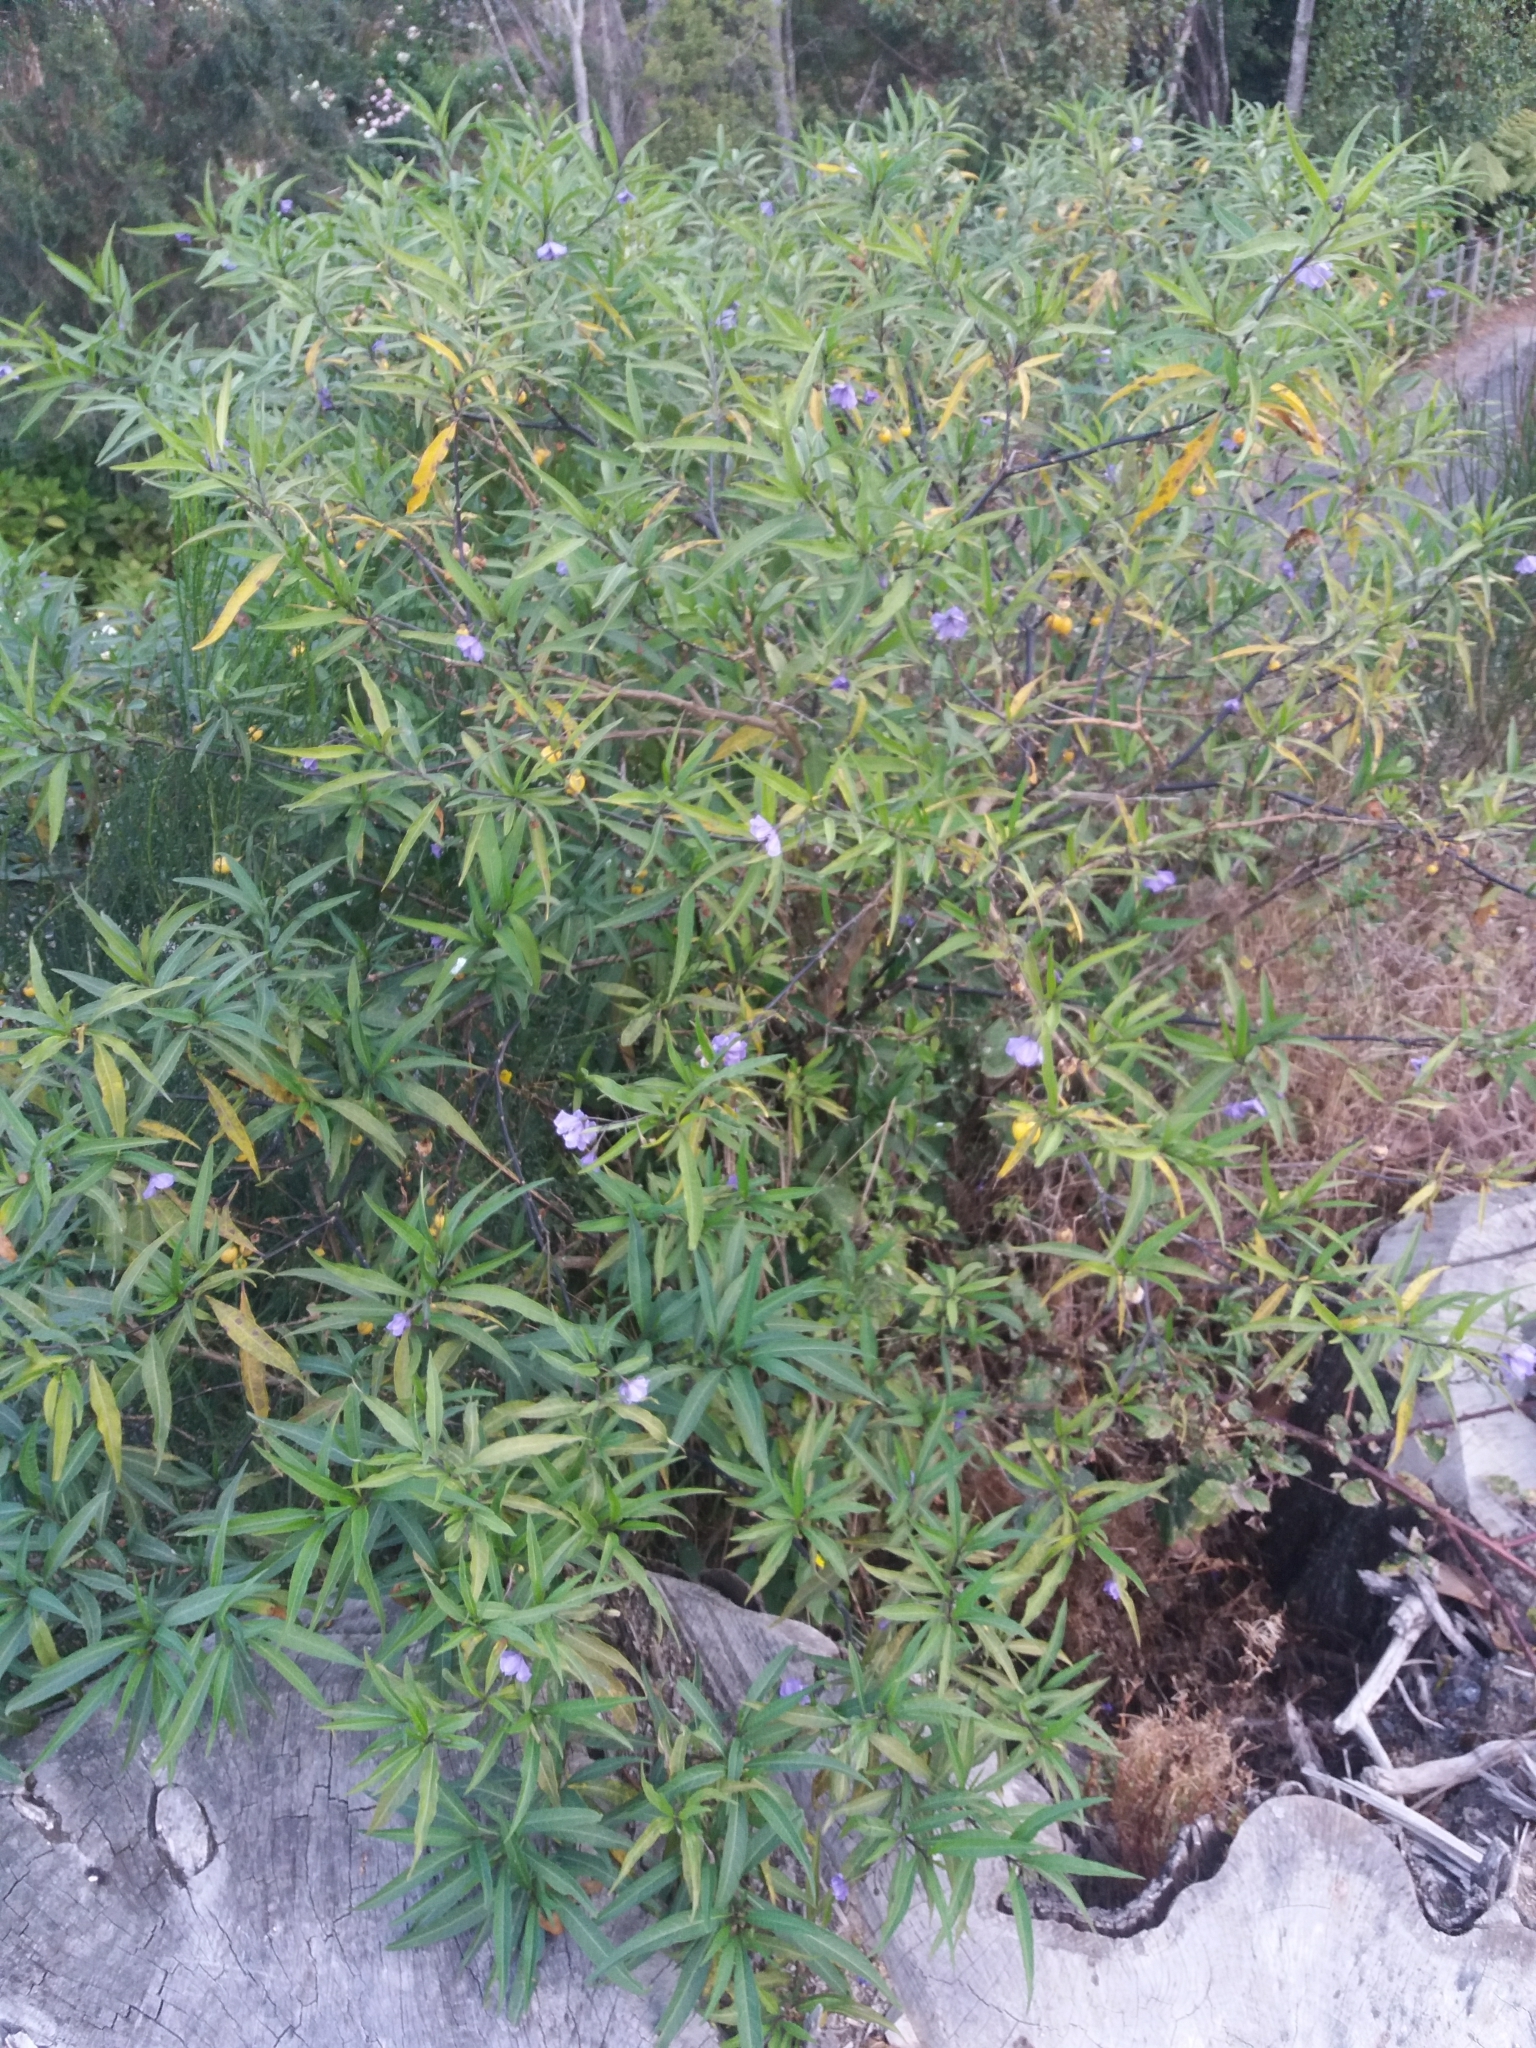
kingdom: Plantae
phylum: Tracheophyta
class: Magnoliopsida
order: Solanales
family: Solanaceae
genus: Solanum
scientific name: Solanum laciniatum
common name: Kangaroo-apple
